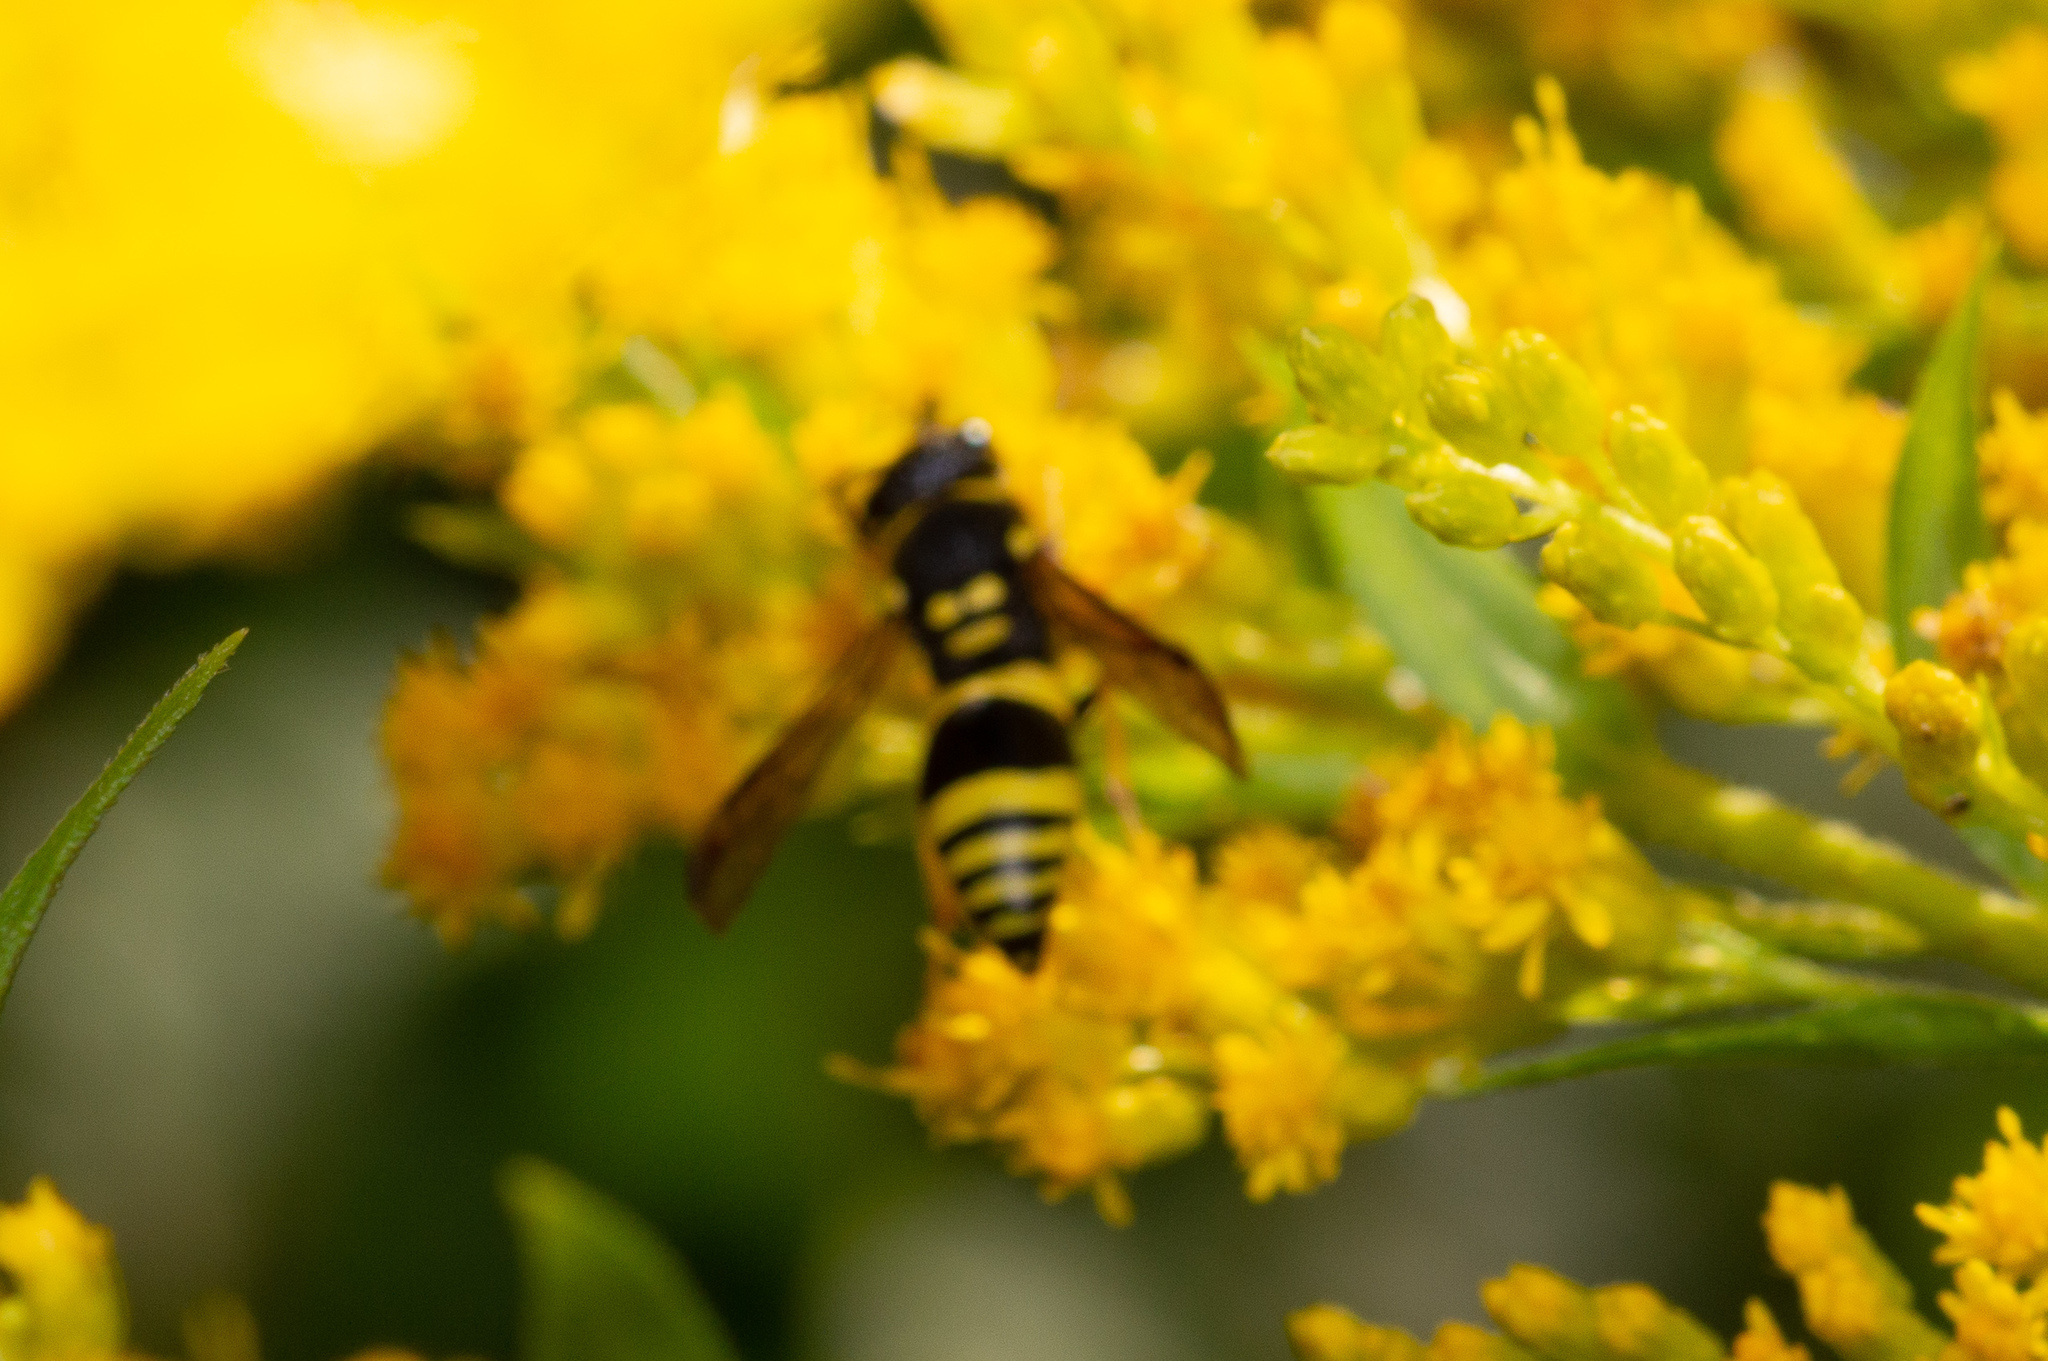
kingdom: Animalia
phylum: Arthropoda
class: Insecta
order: Hymenoptera
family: Vespidae
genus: Ancistrocerus
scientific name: Ancistrocerus gazella
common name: European tube wasp
